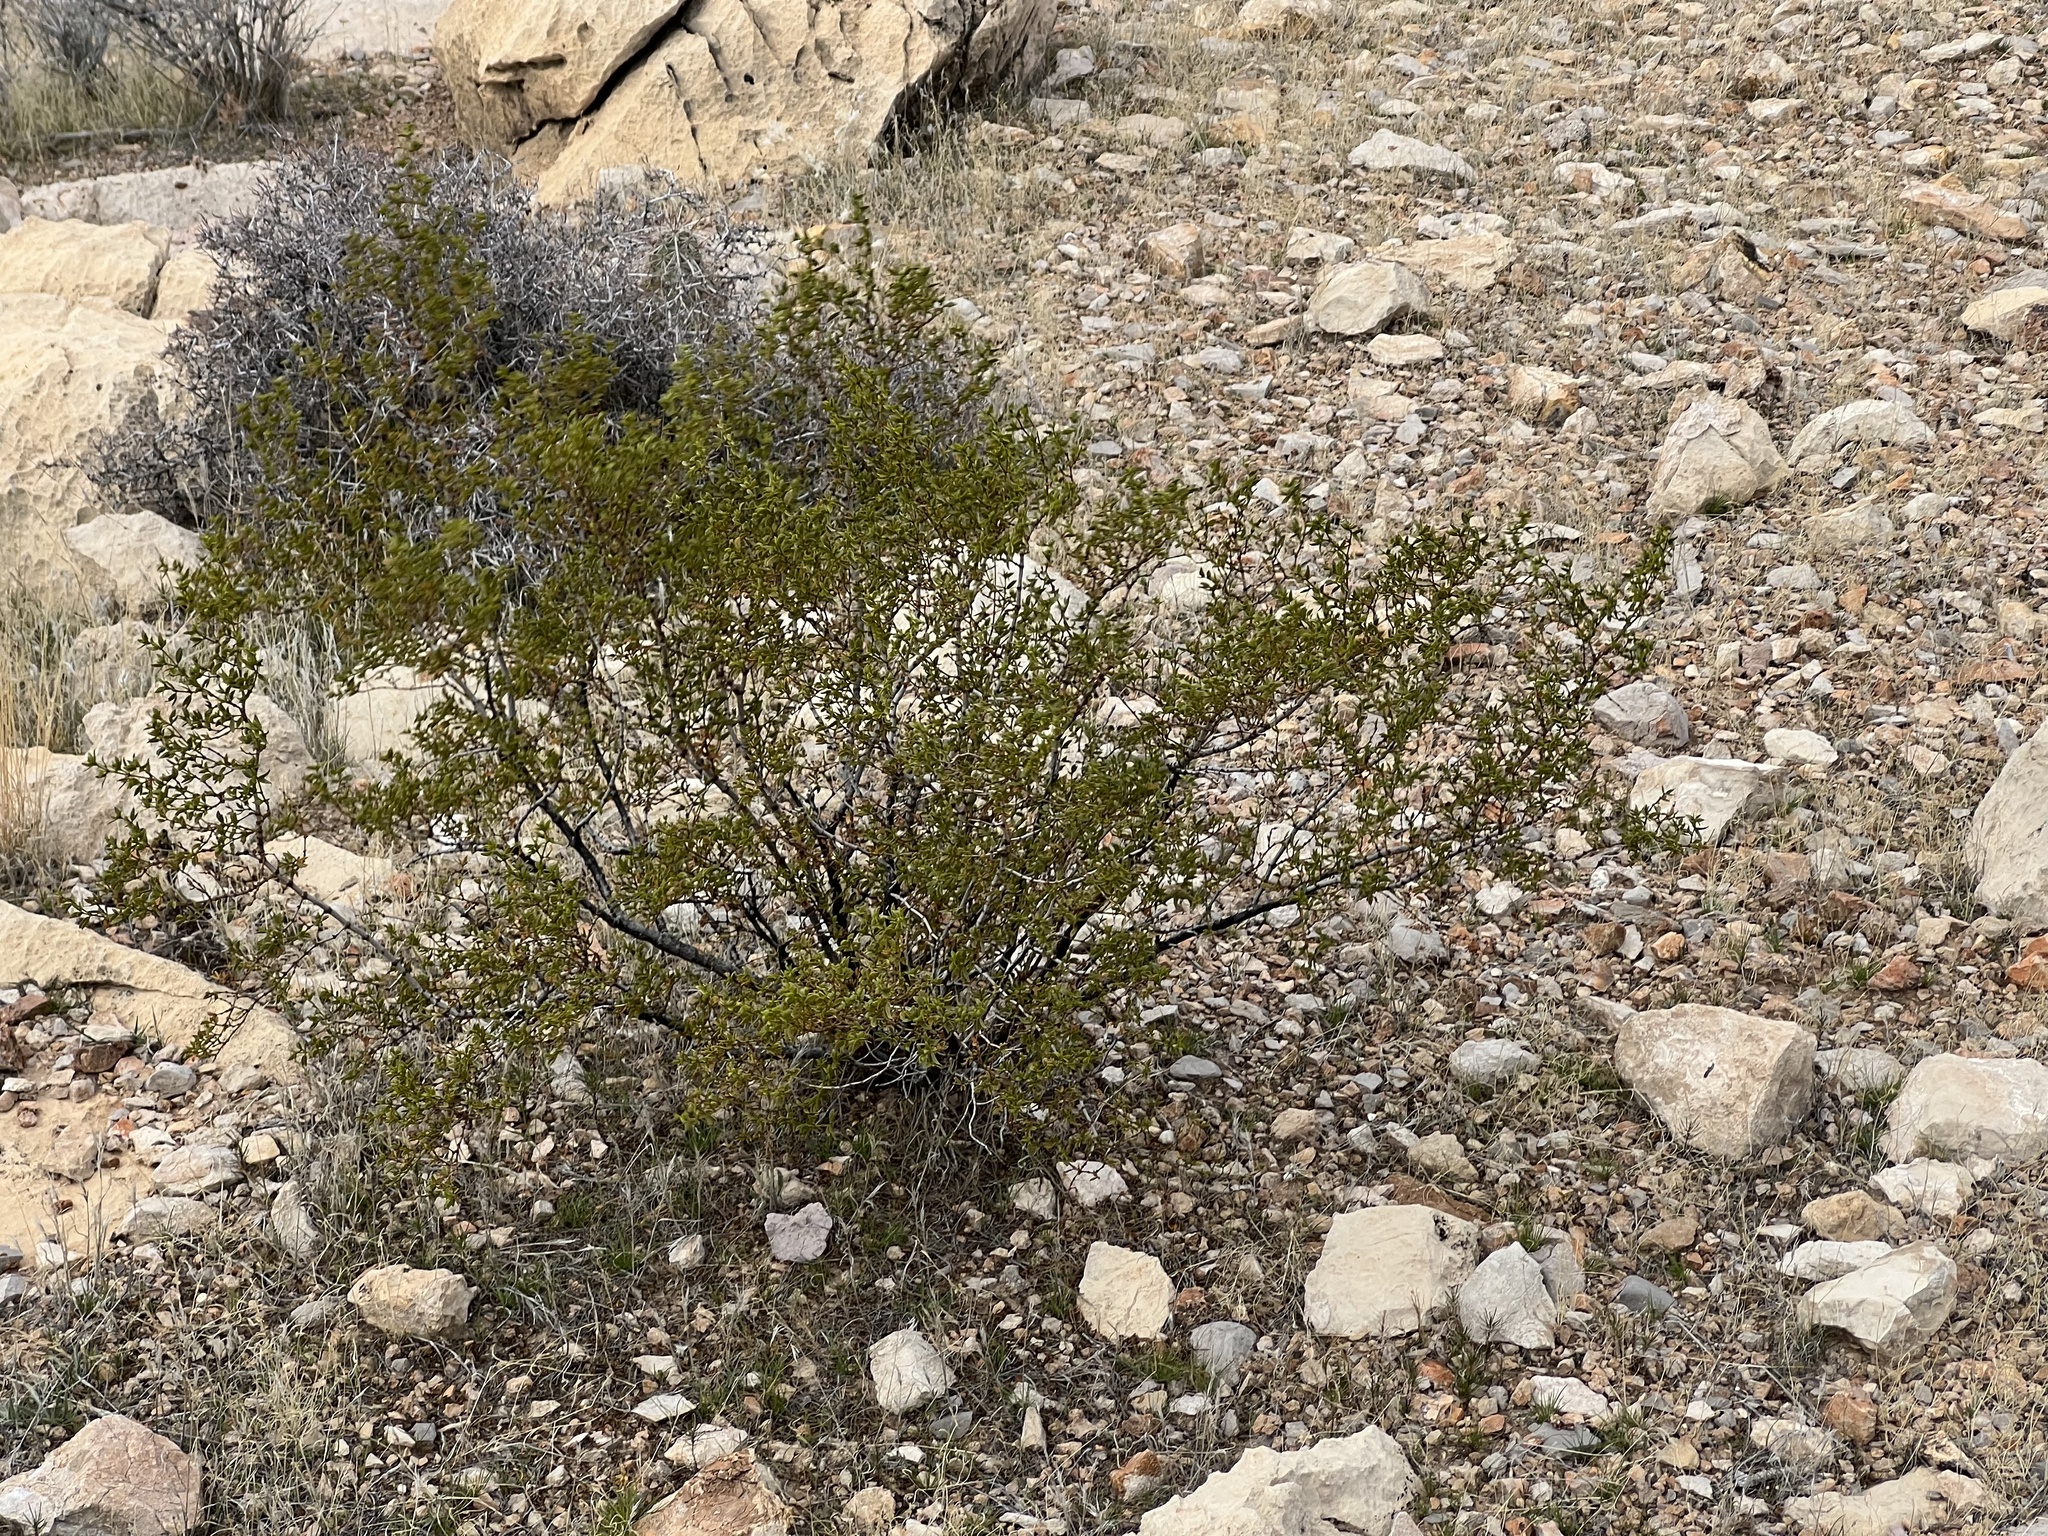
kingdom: Plantae
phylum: Tracheophyta
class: Magnoliopsida
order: Zygophyllales
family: Zygophyllaceae
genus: Larrea
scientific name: Larrea tridentata
